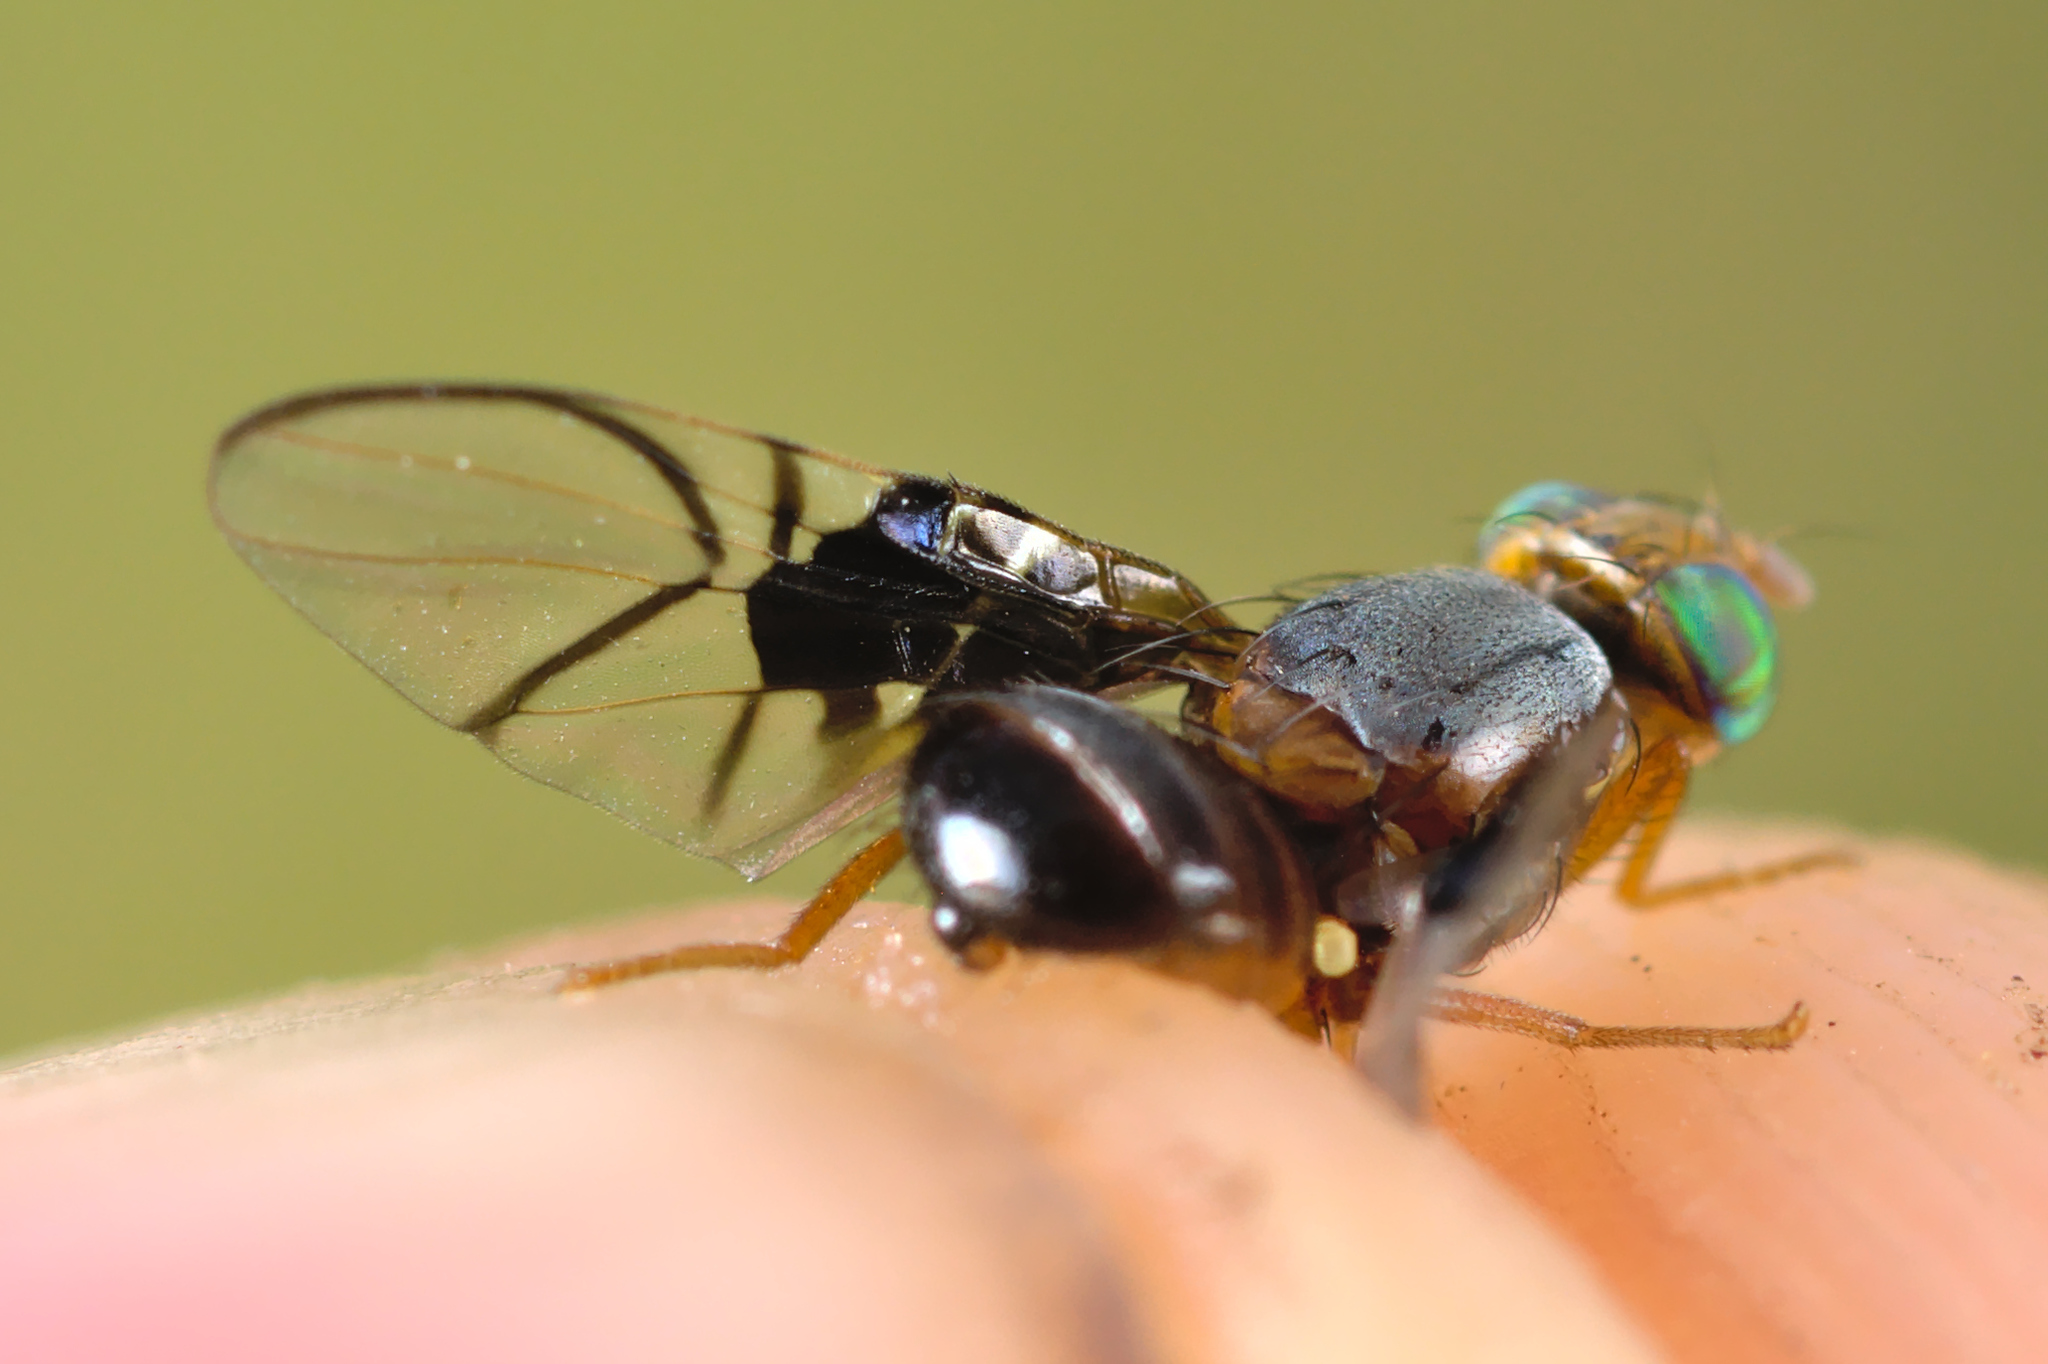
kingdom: Animalia
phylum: Arthropoda
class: Insecta
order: Diptera
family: Tephritidae
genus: Anomoia
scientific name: Anomoia purmunda
